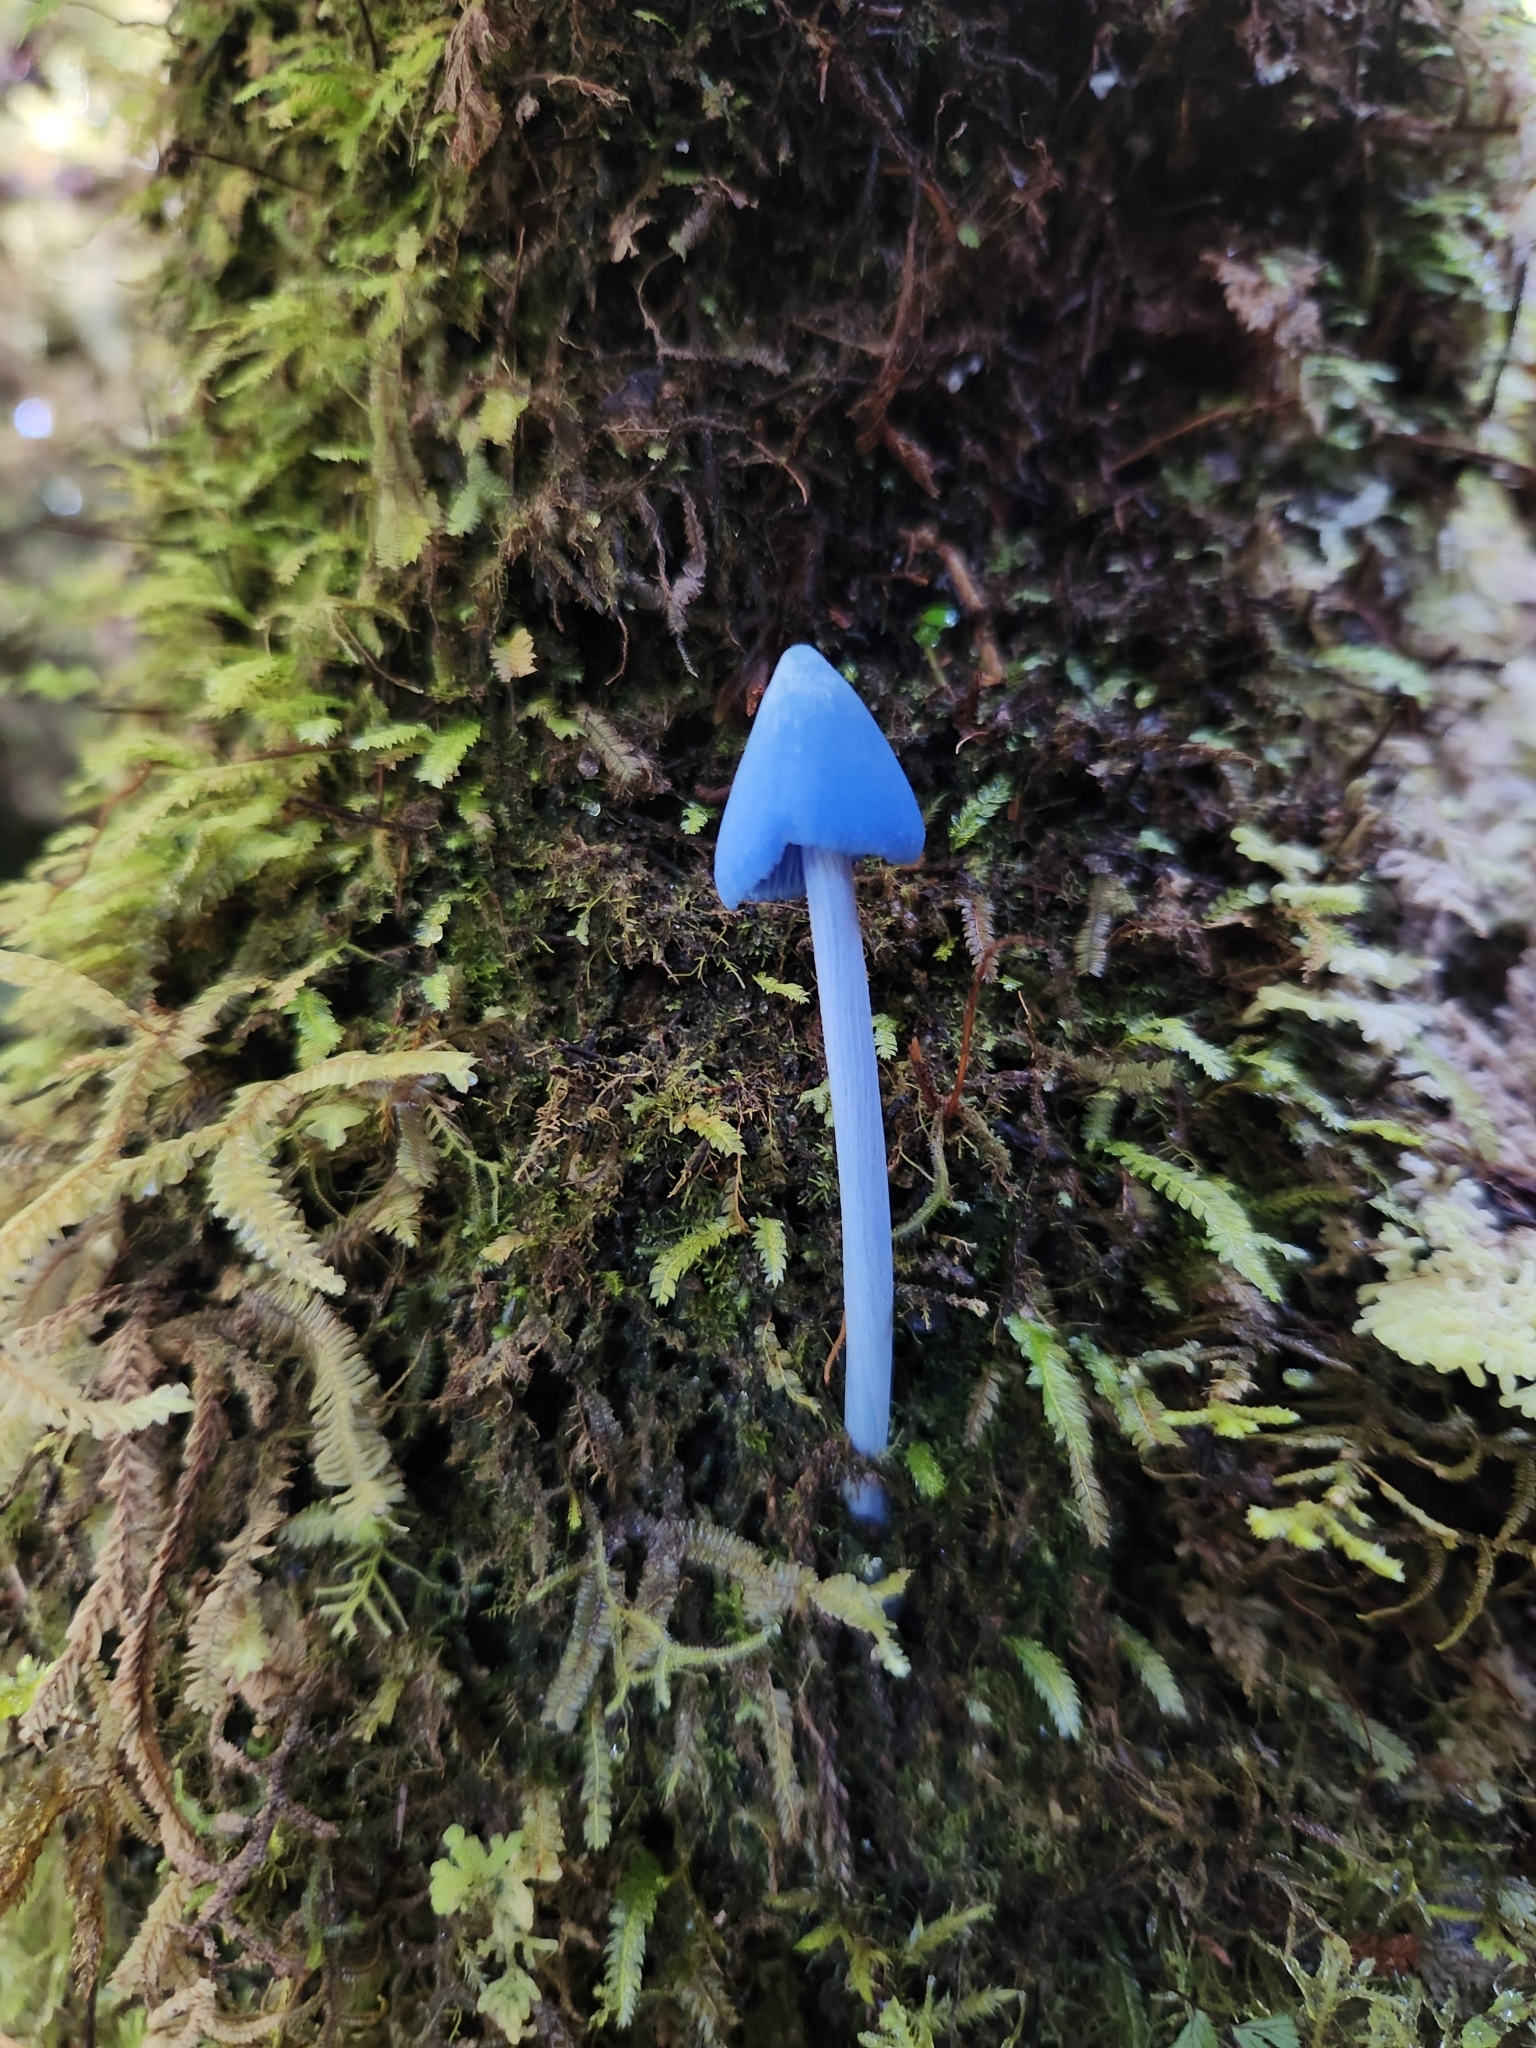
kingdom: Fungi
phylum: Basidiomycota
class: Agaricomycetes
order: Agaricales
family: Entolomataceae
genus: Entoloma
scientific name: Entoloma hochstetteri
